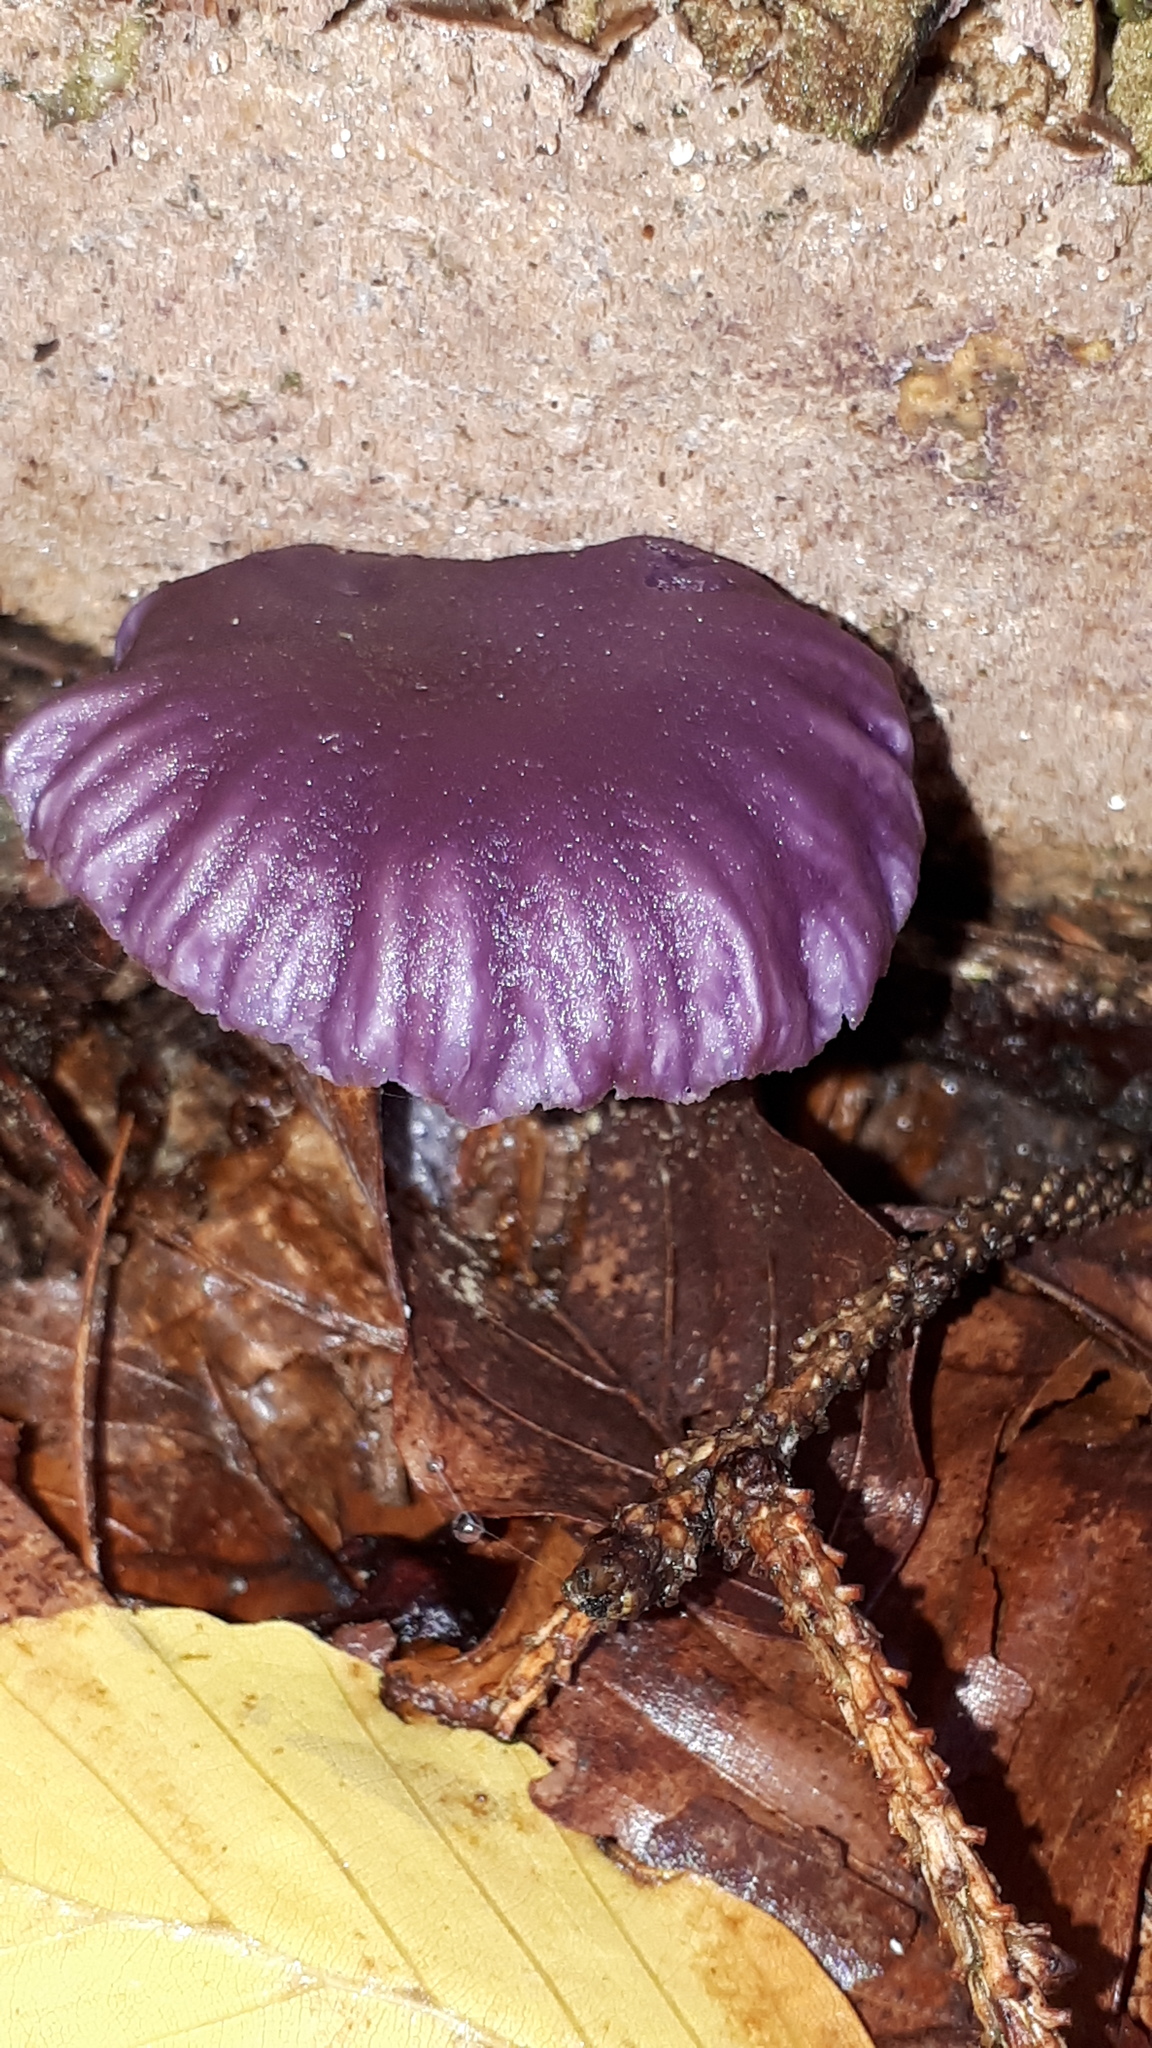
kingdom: Fungi
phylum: Basidiomycota
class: Agaricomycetes
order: Agaricales
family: Hydnangiaceae
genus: Laccaria
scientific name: Laccaria amethystina
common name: Amethyst deceiver
